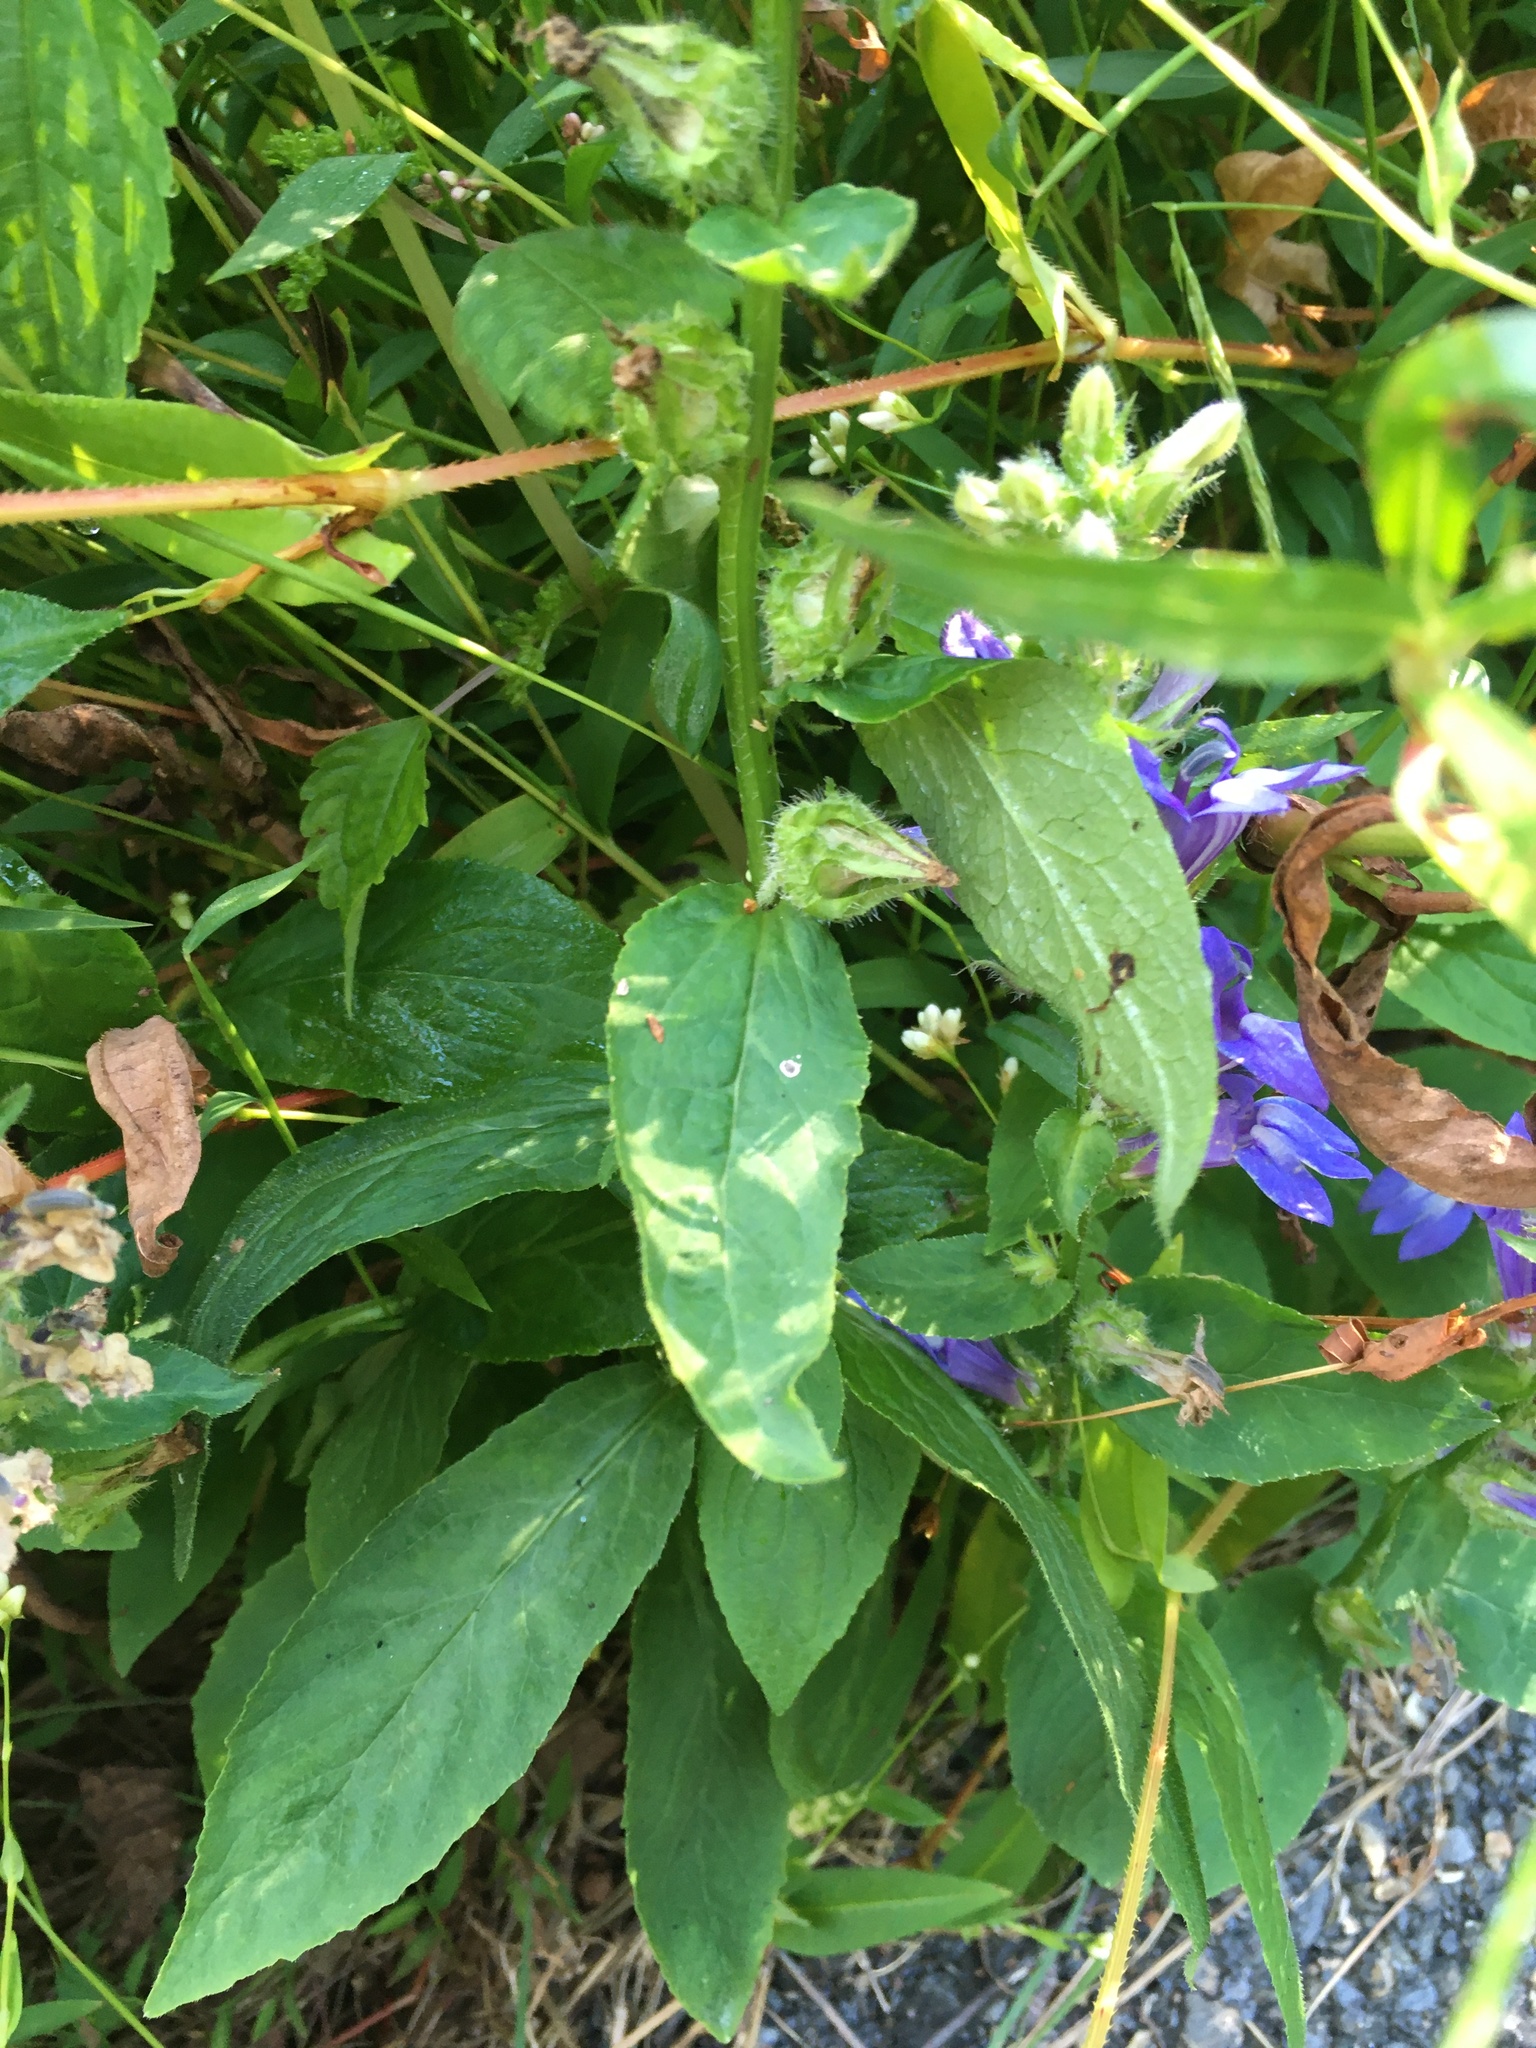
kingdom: Plantae
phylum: Tracheophyta
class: Magnoliopsida
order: Asterales
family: Campanulaceae
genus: Lobelia
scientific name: Lobelia siphilitica
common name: Great lobelia
